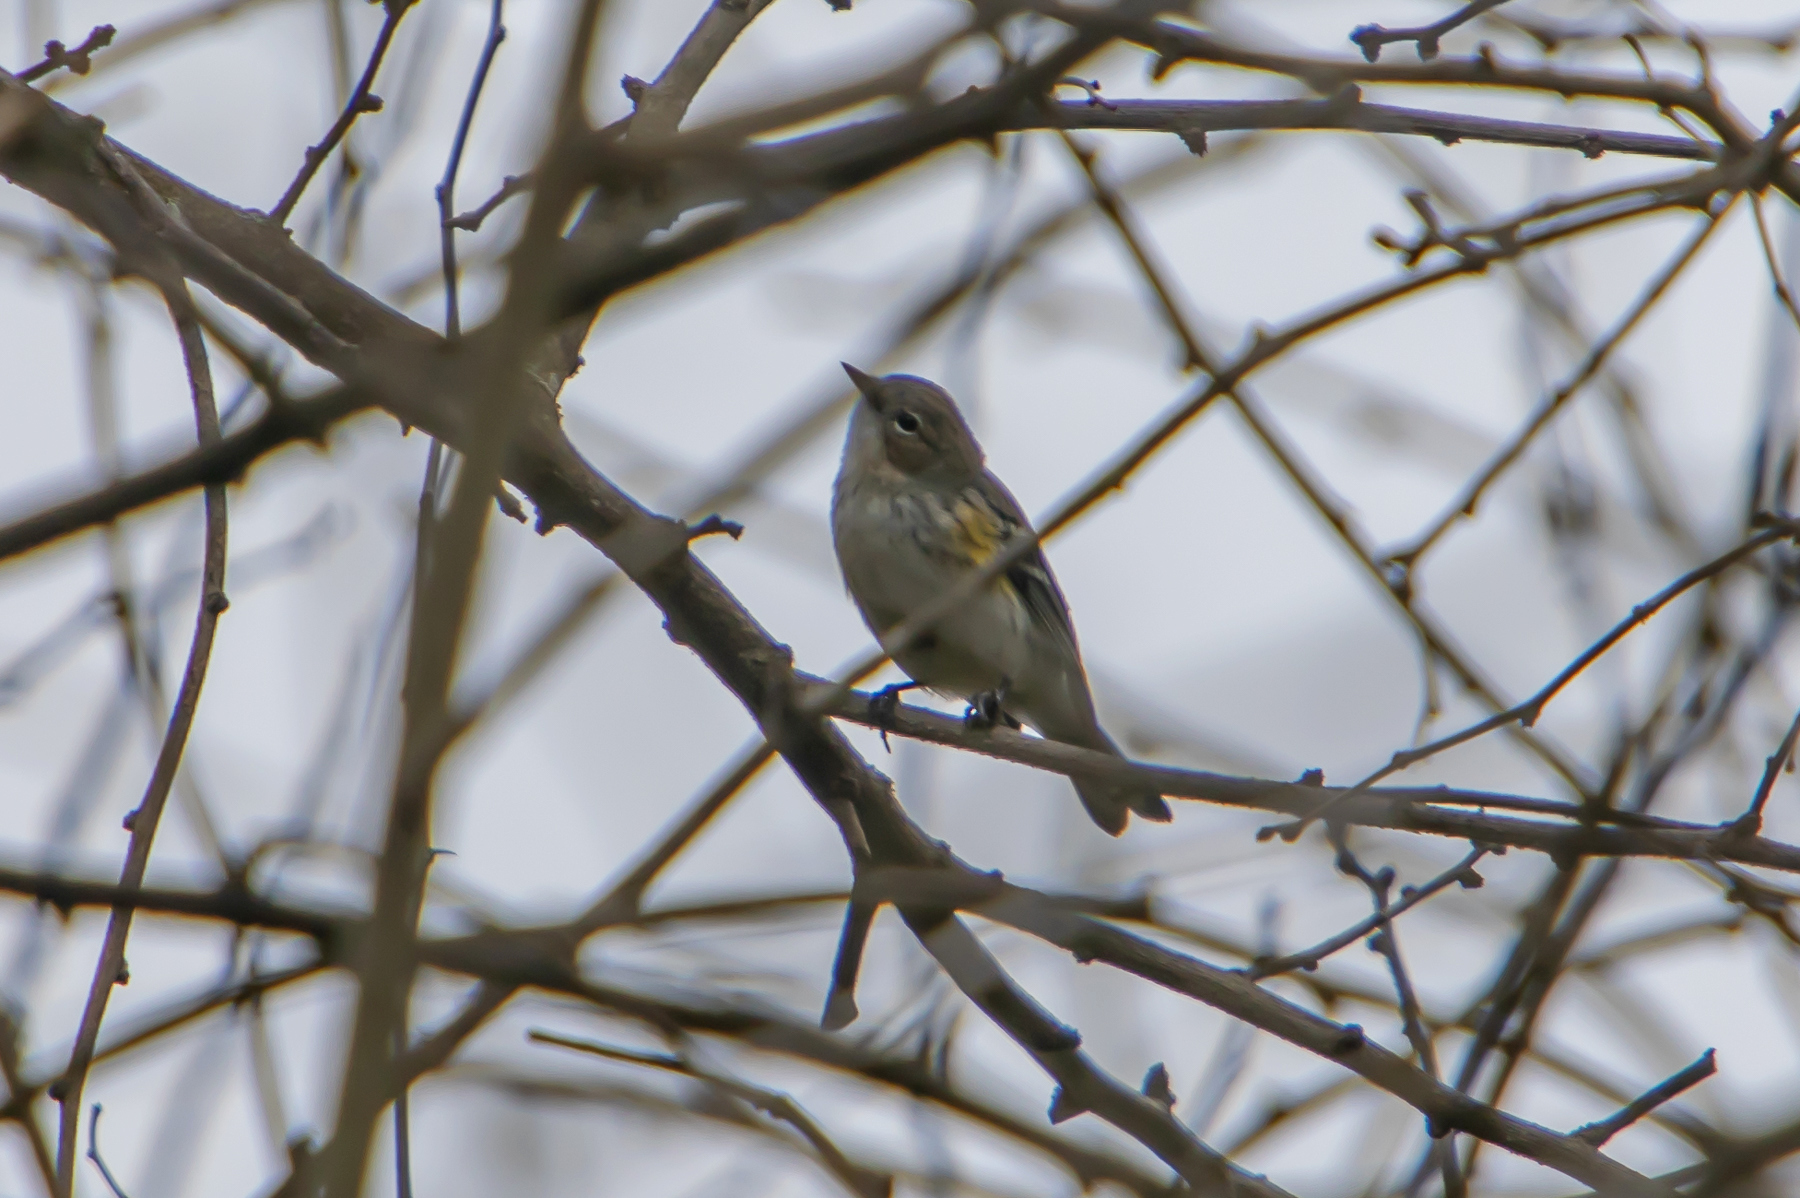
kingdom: Animalia
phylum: Chordata
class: Aves
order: Passeriformes
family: Parulidae
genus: Setophaga
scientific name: Setophaga coronata
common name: Myrtle warbler
